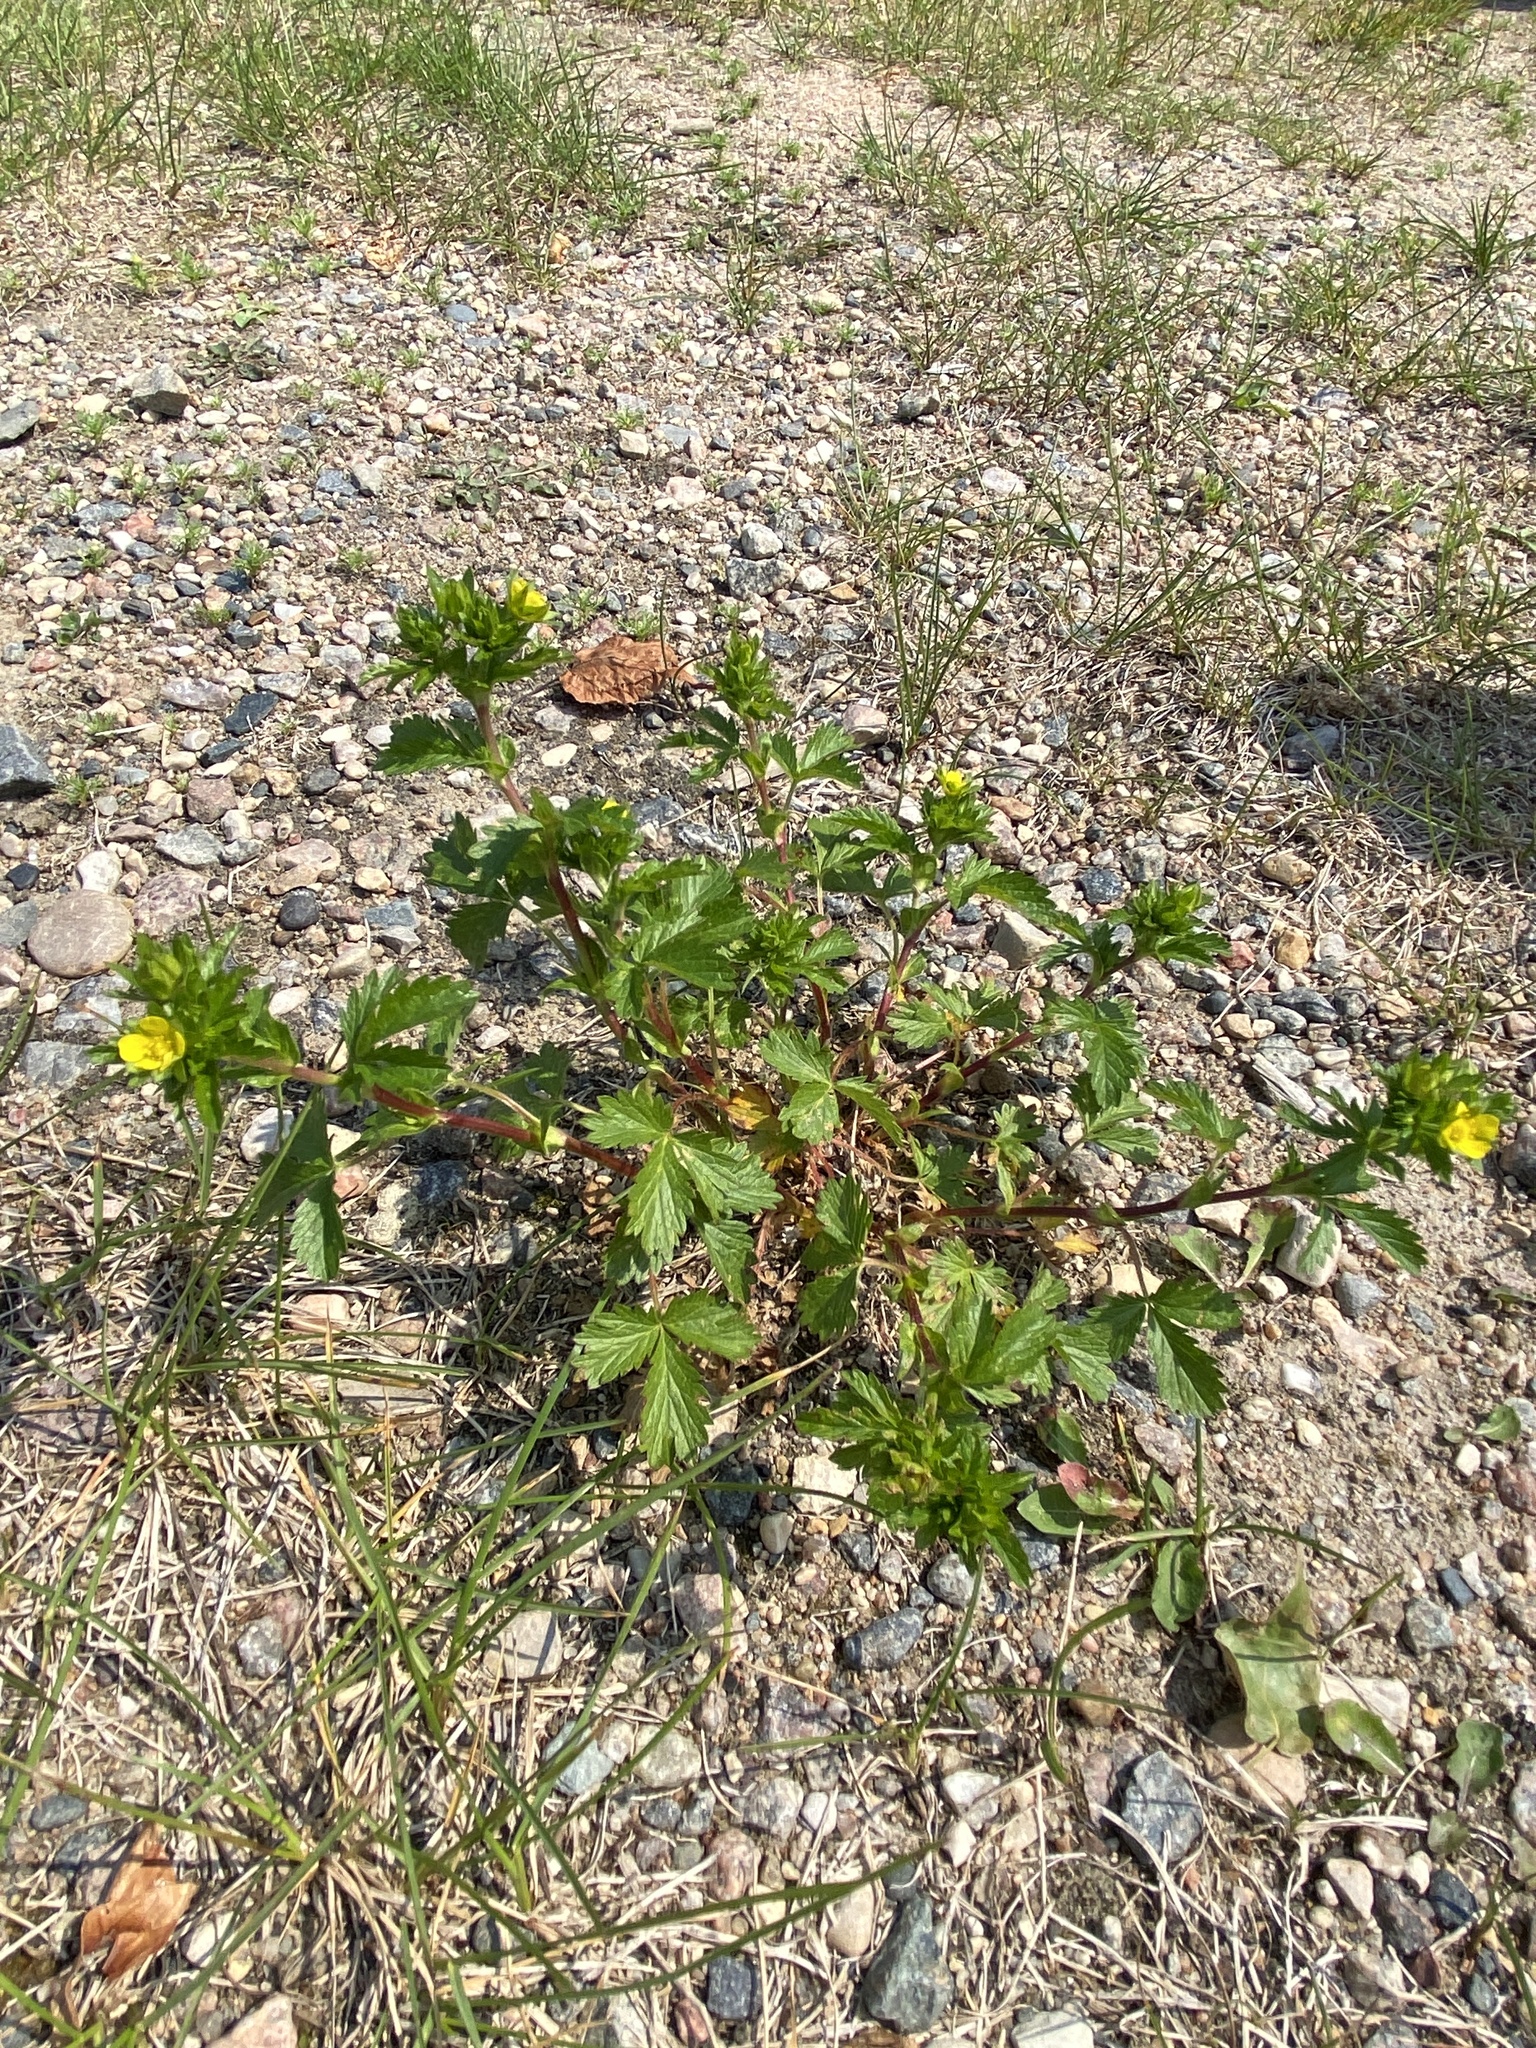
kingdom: Plantae
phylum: Tracheophyta
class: Magnoliopsida
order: Rosales
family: Rosaceae
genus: Potentilla
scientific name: Potentilla norvegica
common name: Ternate-leaved cinquefoil
